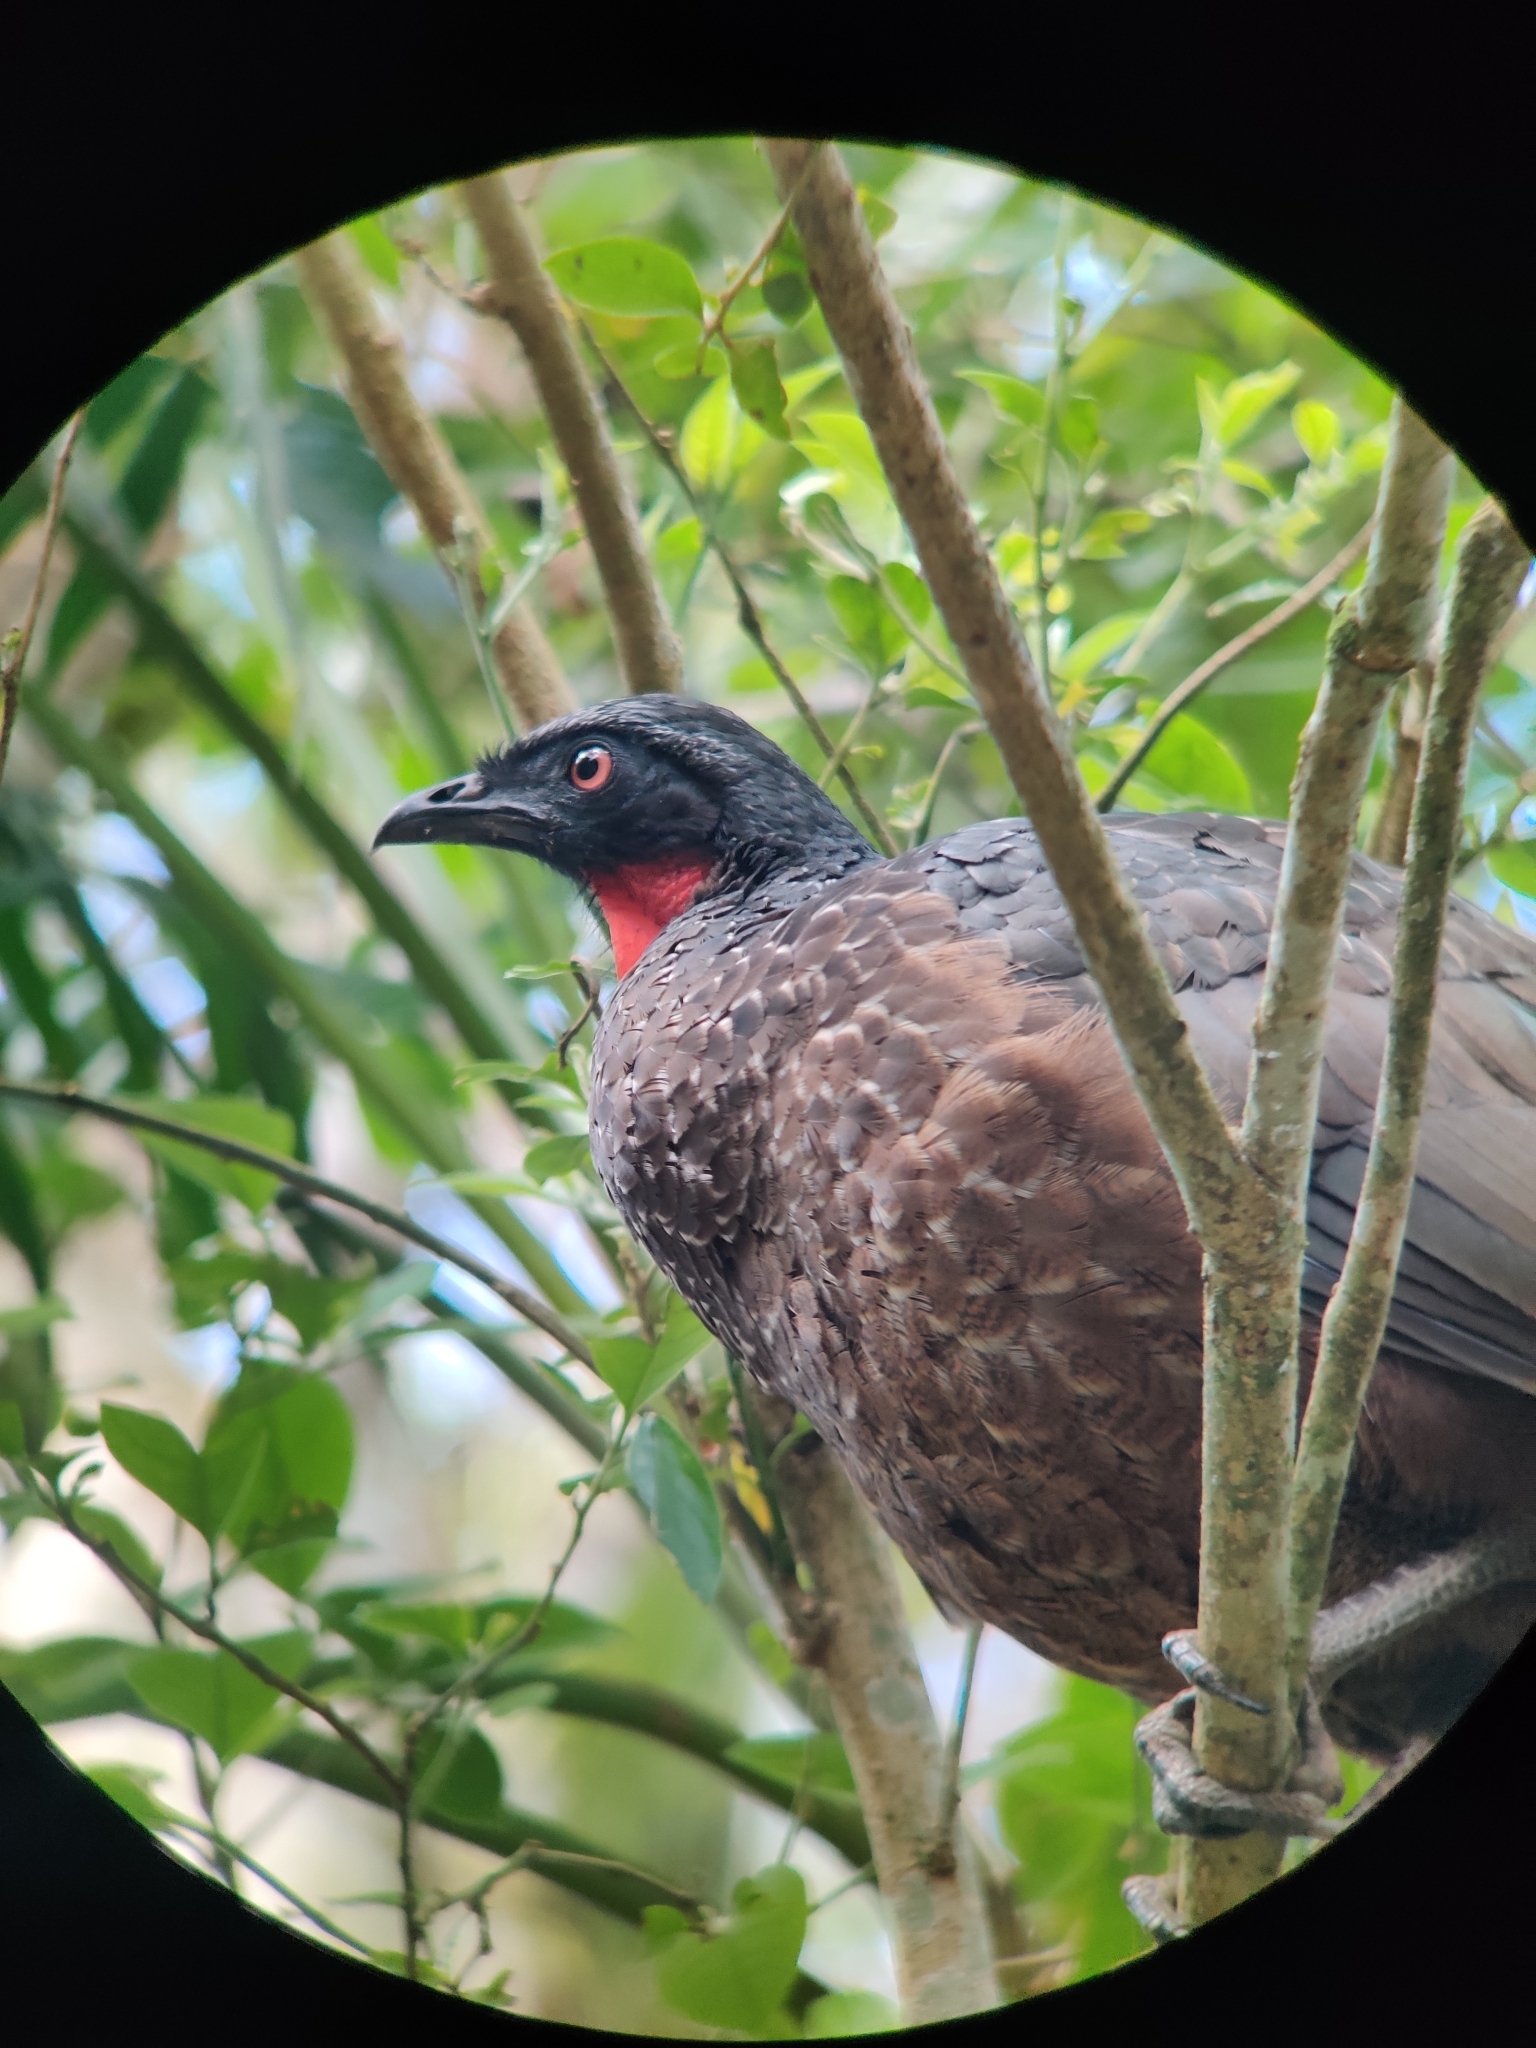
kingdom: Animalia
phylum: Chordata
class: Aves
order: Galliformes
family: Cracidae
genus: Penelope
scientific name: Penelope obscura
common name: Dusky-legged guan
